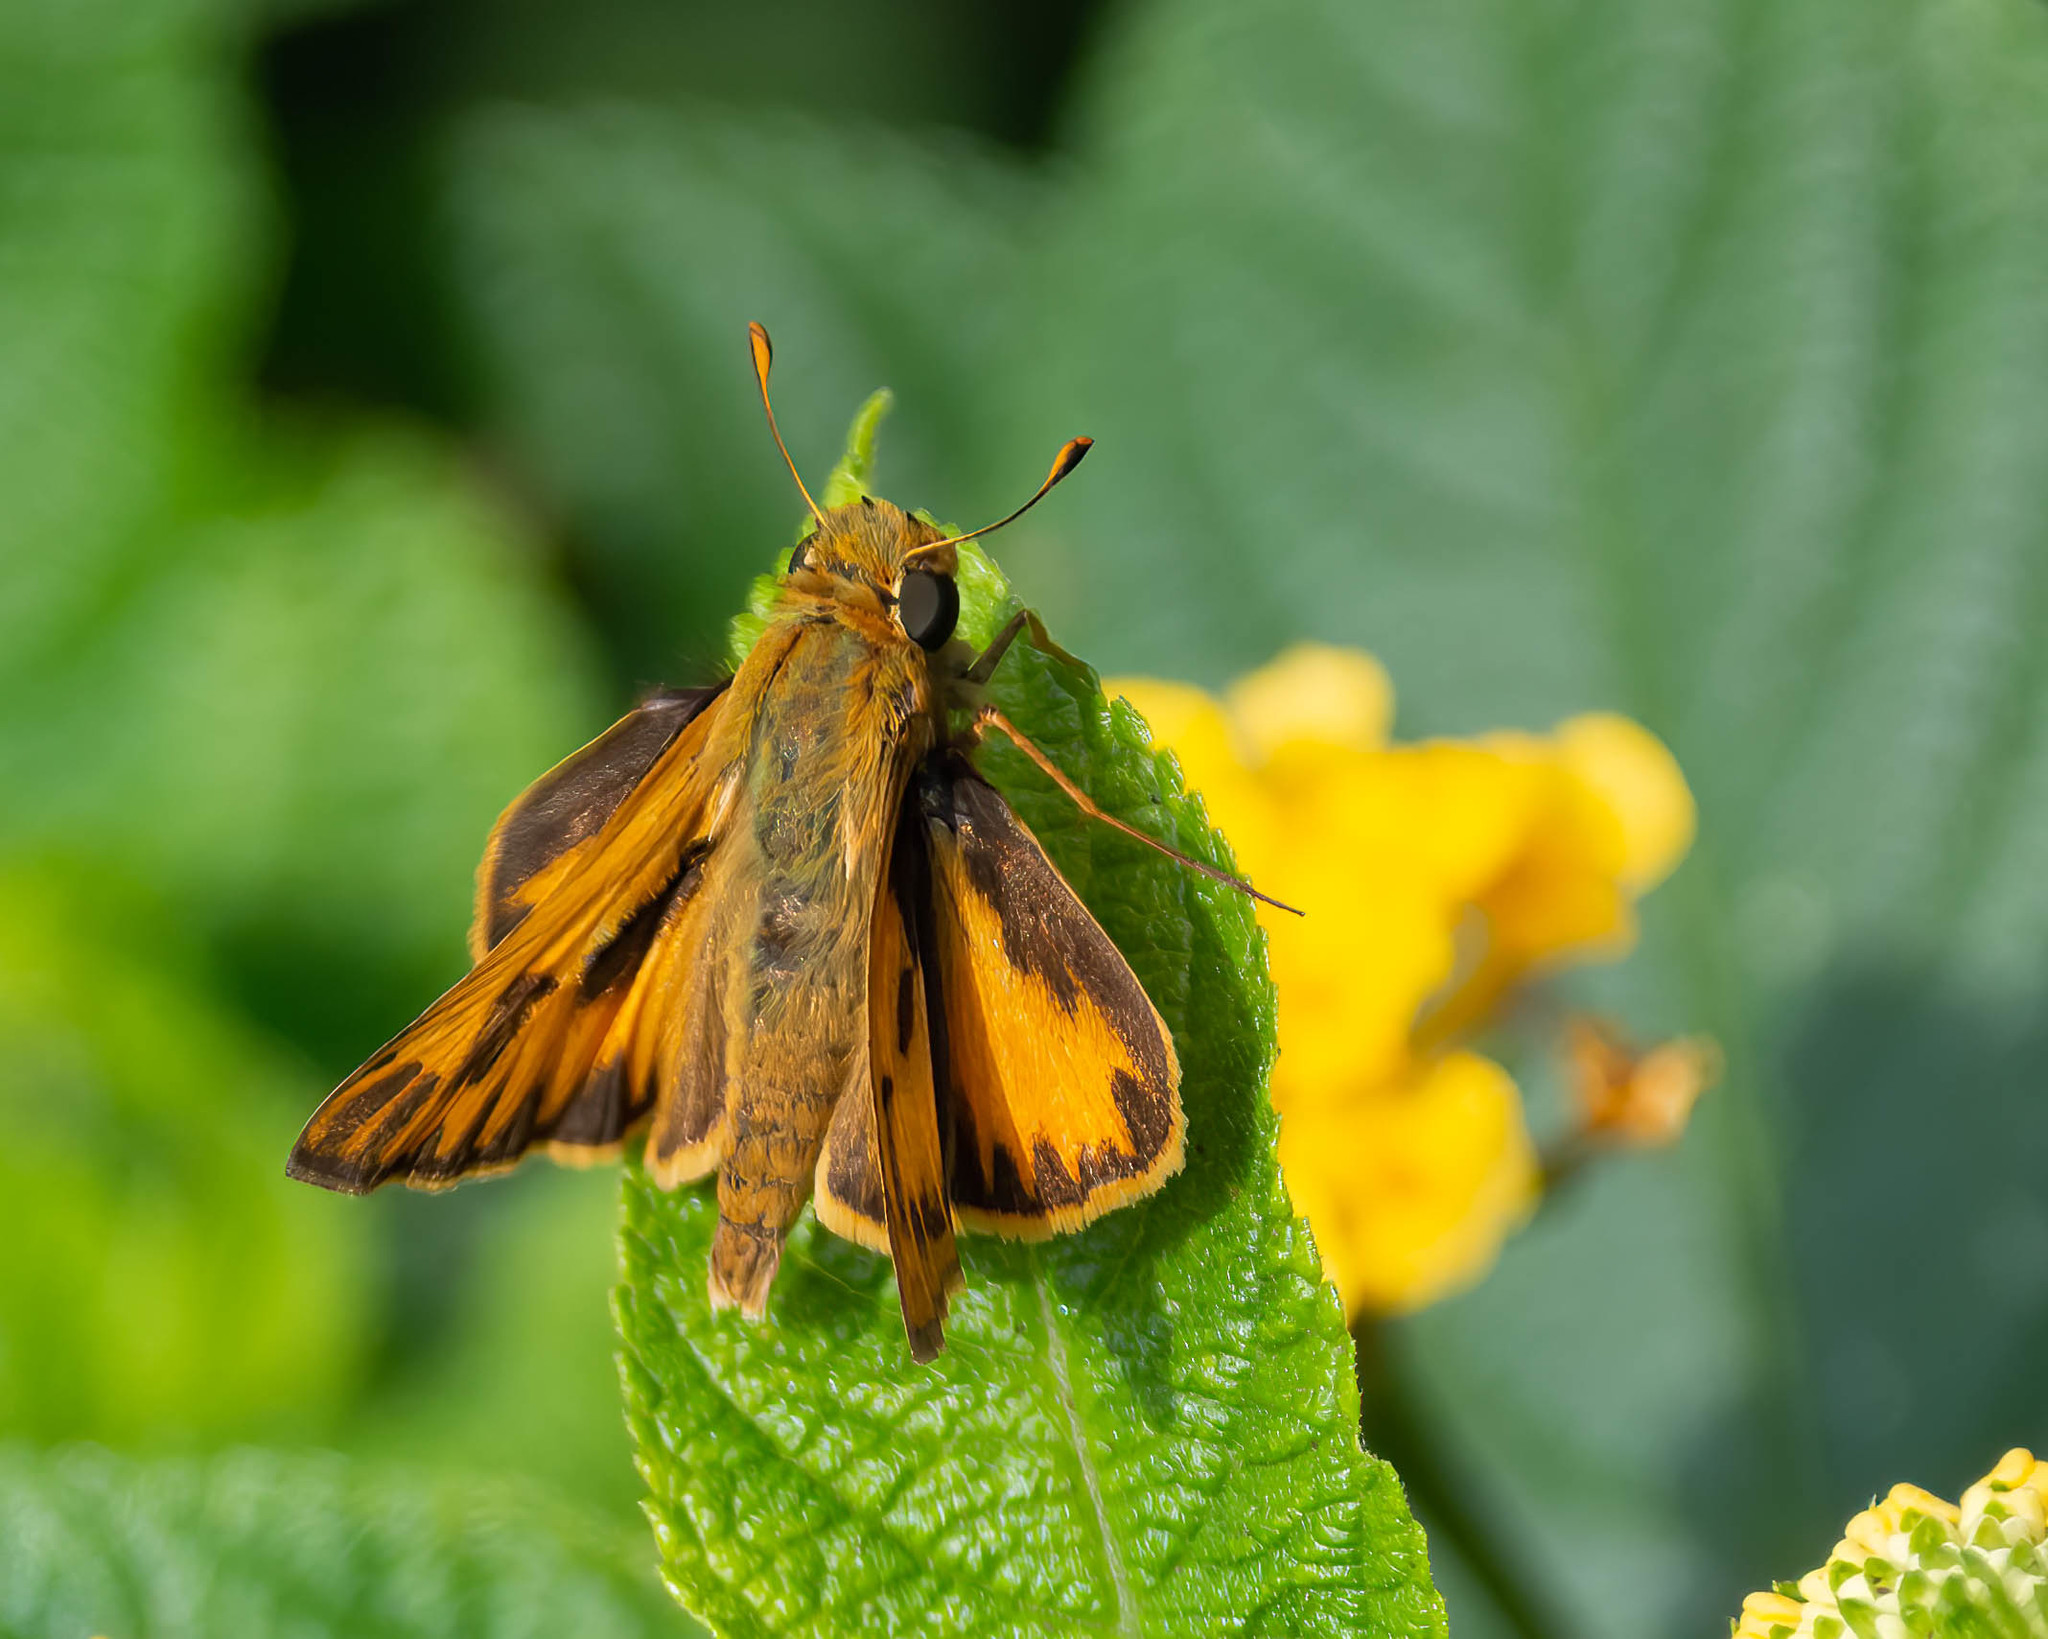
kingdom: Animalia
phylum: Arthropoda
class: Insecta
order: Lepidoptera
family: Hesperiidae
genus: Hylephila
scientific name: Hylephila phyleus
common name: Fiery skipper
